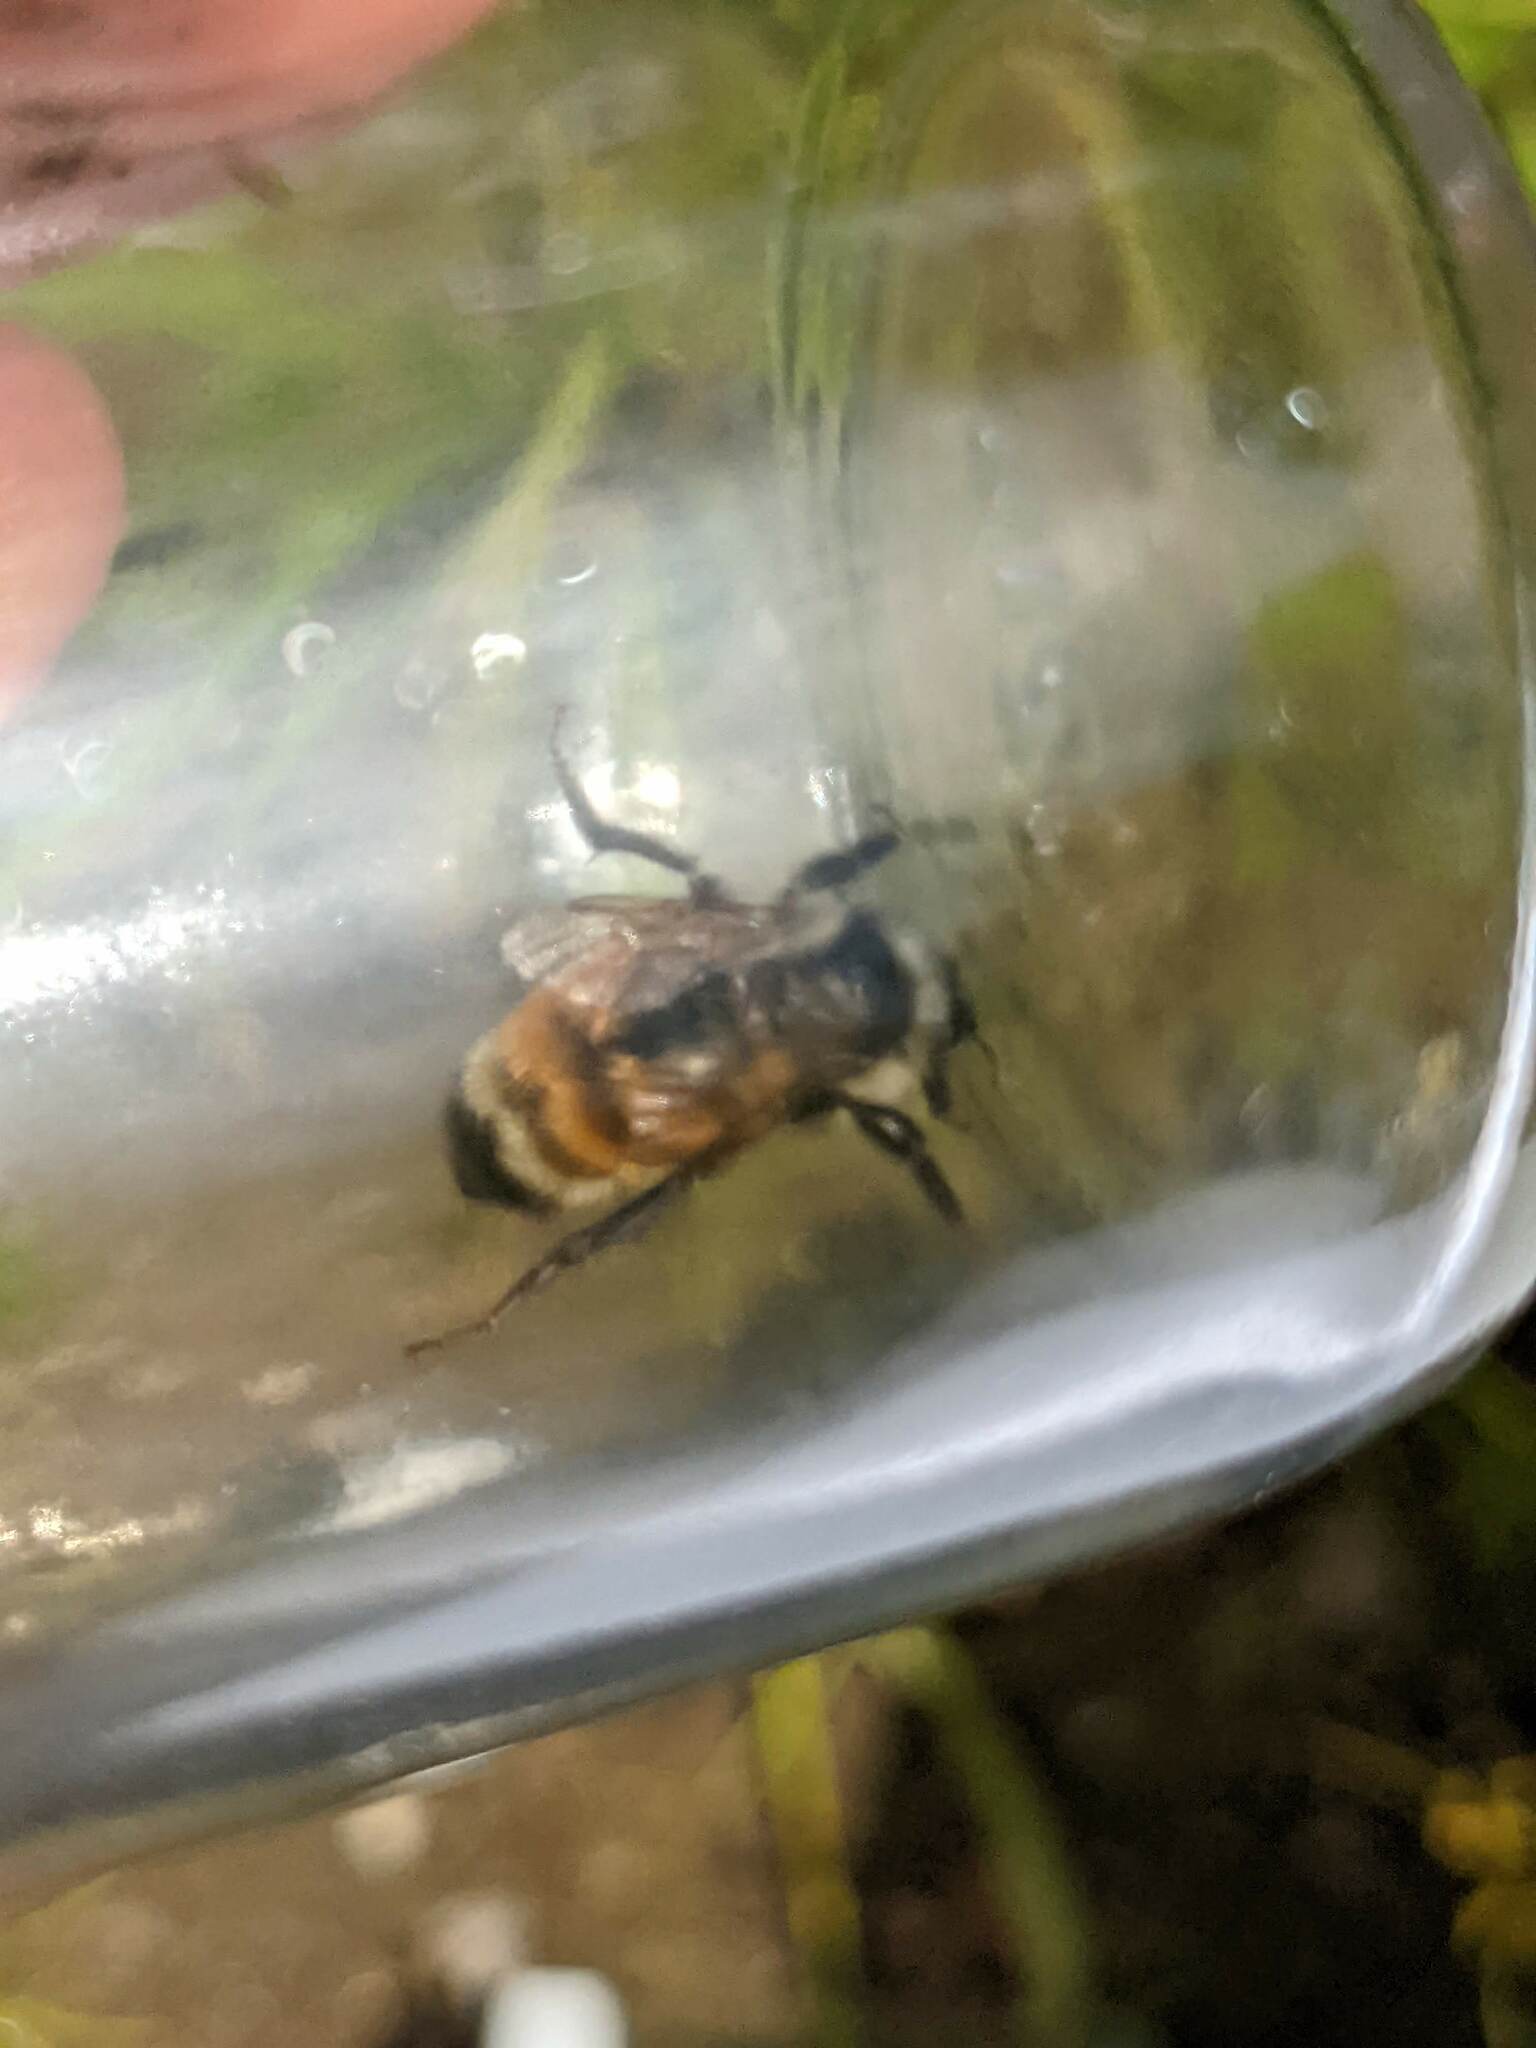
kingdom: Animalia
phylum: Arthropoda
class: Insecta
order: Hymenoptera
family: Apidae
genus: Bombus
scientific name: Bombus ternarius
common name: Tri-colored bumble bee
